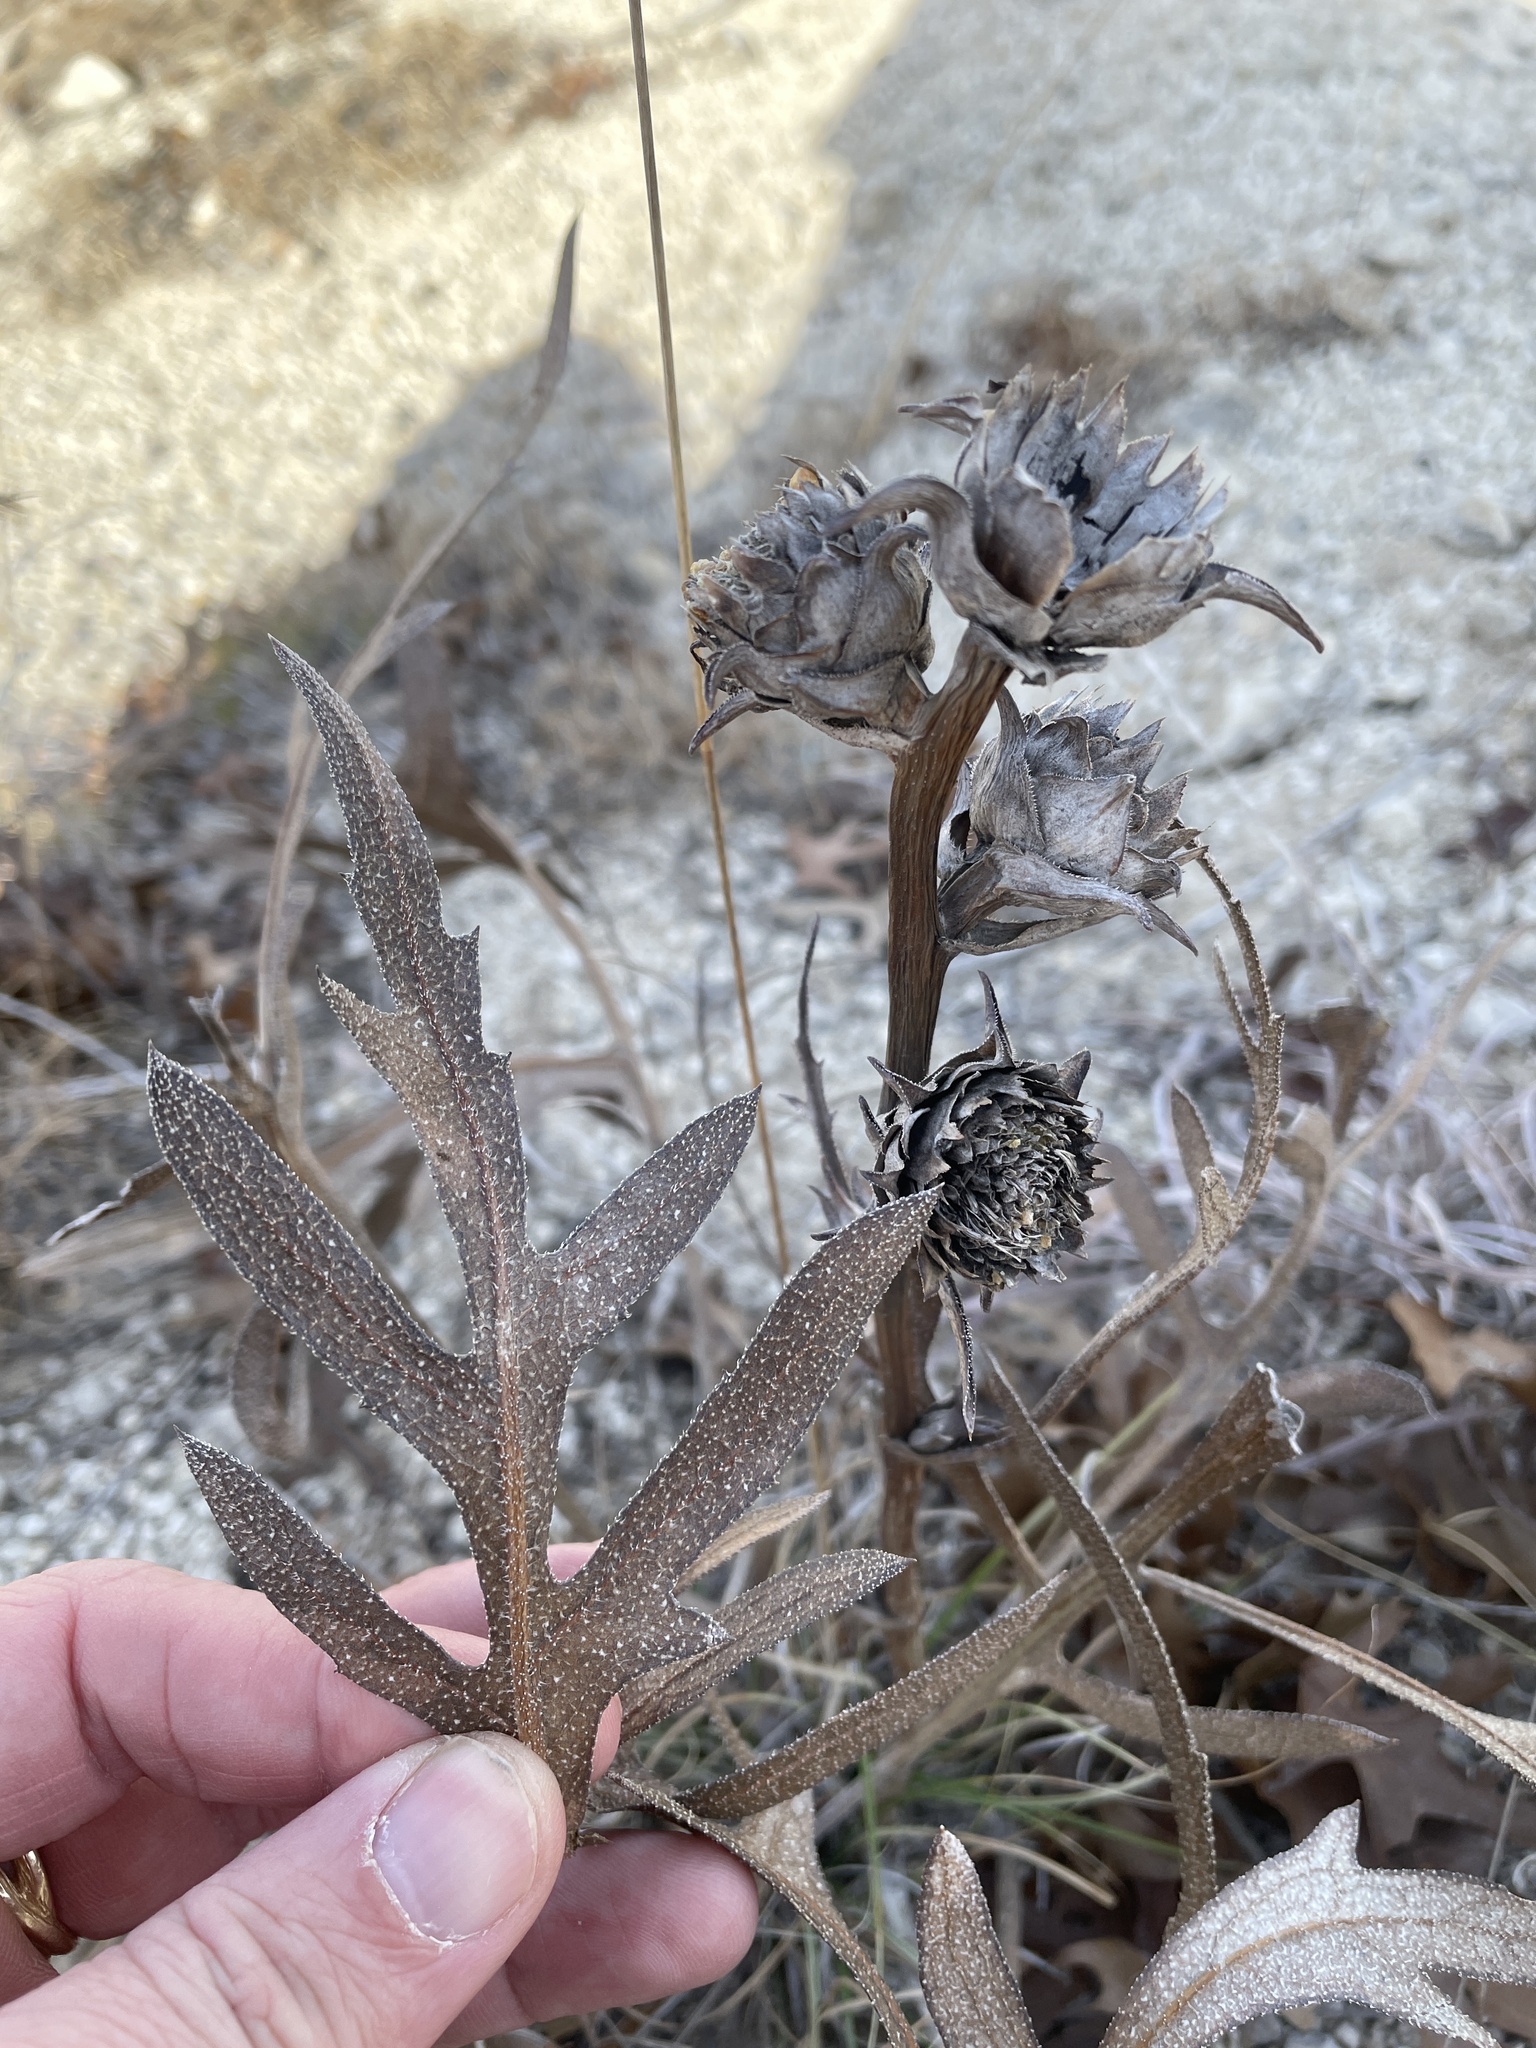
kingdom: Plantae
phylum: Tracheophyta
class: Magnoliopsida
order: Asterales
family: Asteraceae
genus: Silphium
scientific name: Silphium albiflorum
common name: White rosinweed
